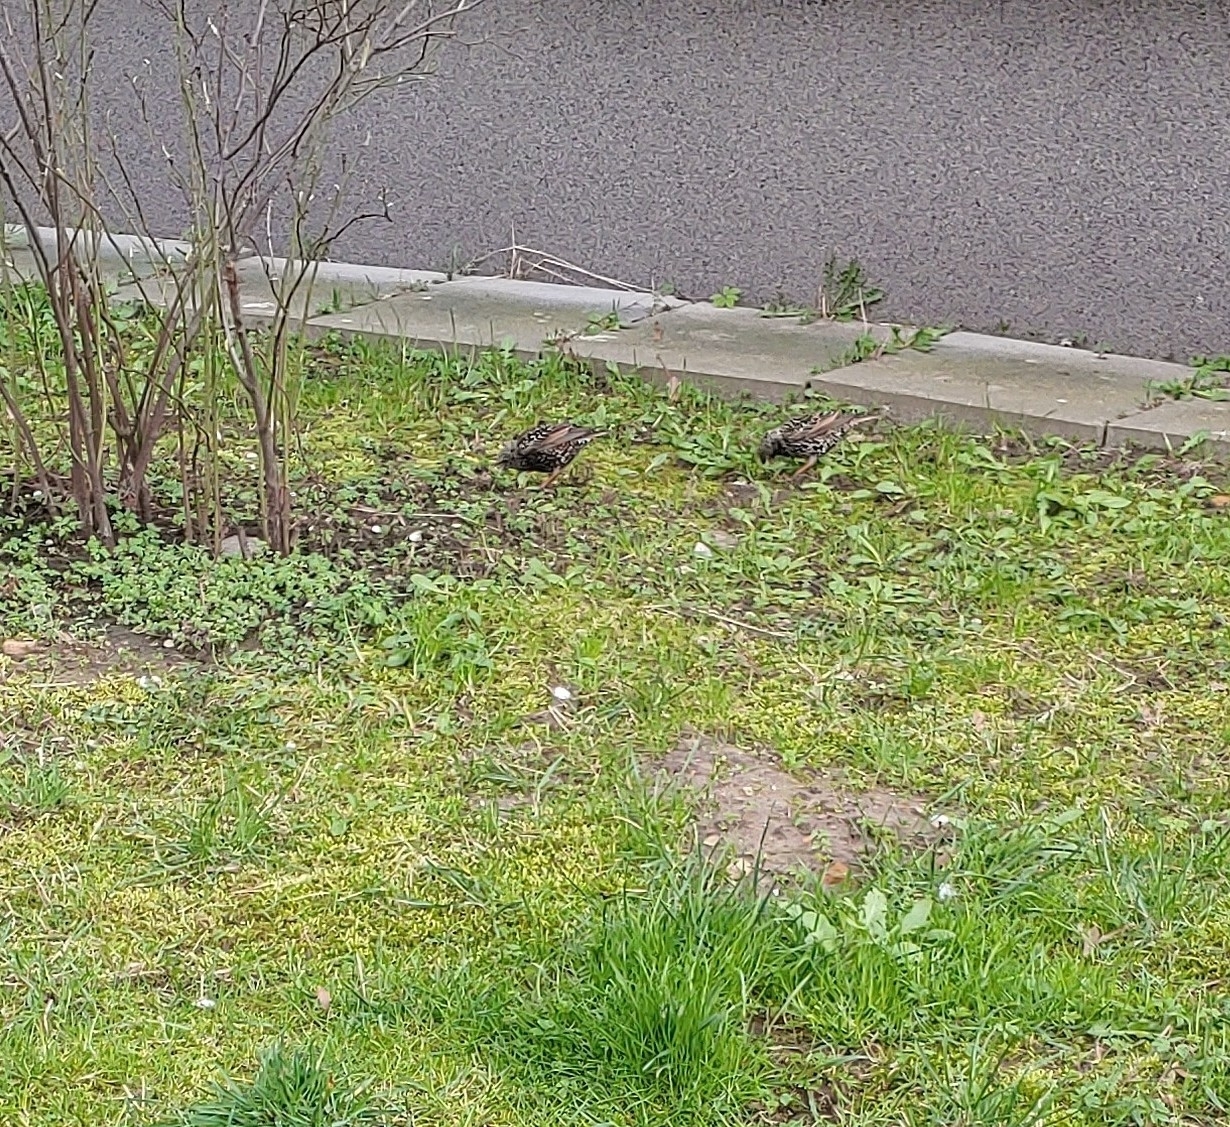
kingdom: Animalia
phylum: Chordata
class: Aves
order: Passeriformes
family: Sturnidae
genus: Sturnus
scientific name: Sturnus vulgaris
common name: Common starling
